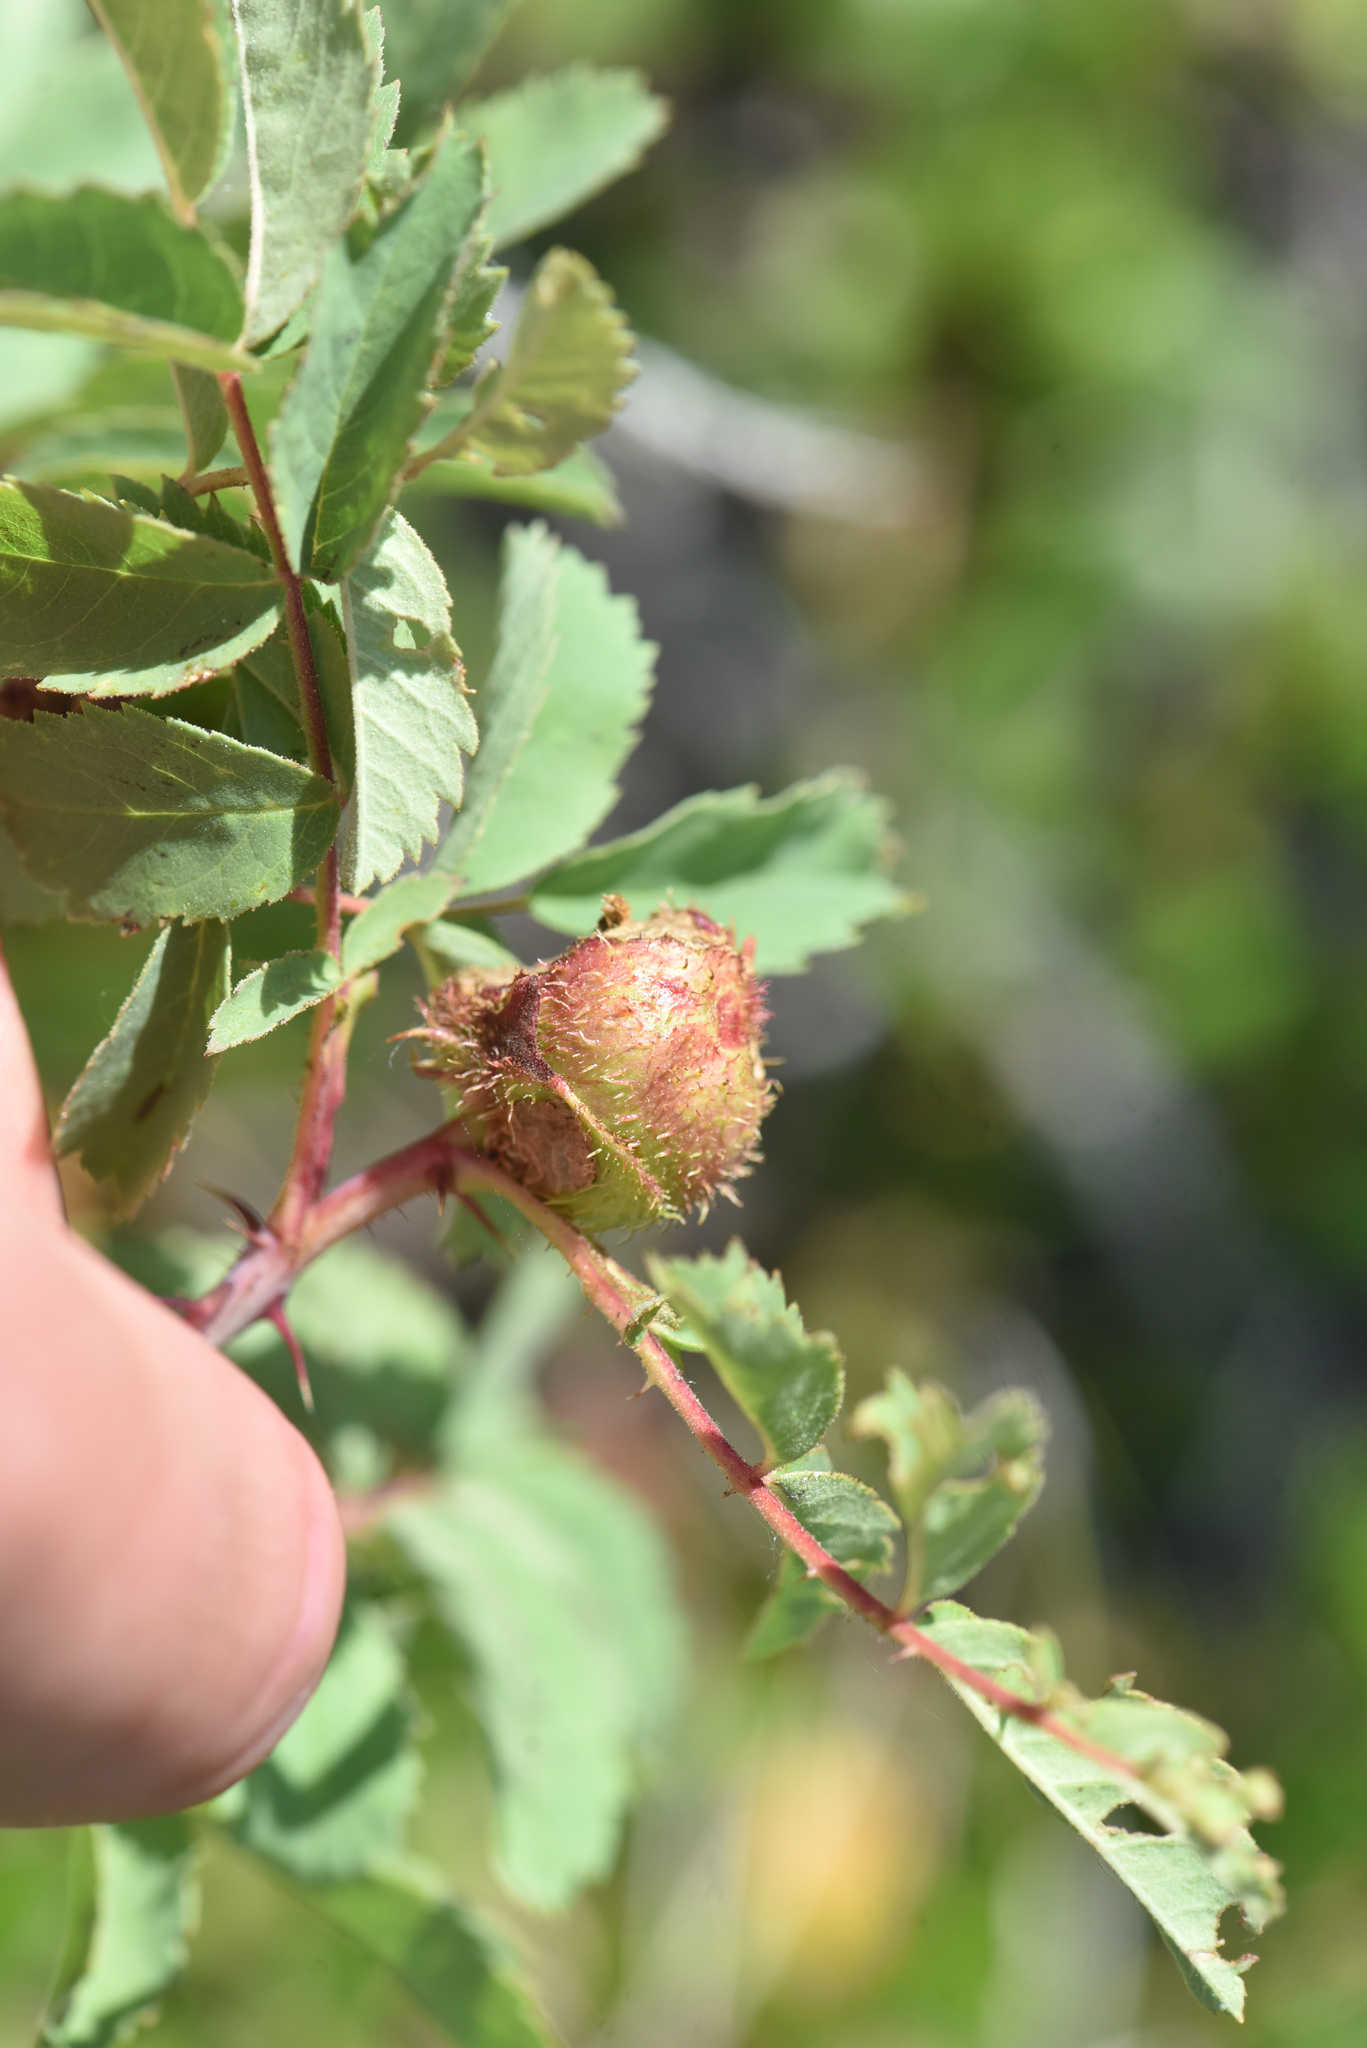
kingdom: Animalia
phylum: Arthropoda
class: Insecta
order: Hymenoptera
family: Cynipidae
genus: Diplolepis
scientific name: Diplolepis spinosa
